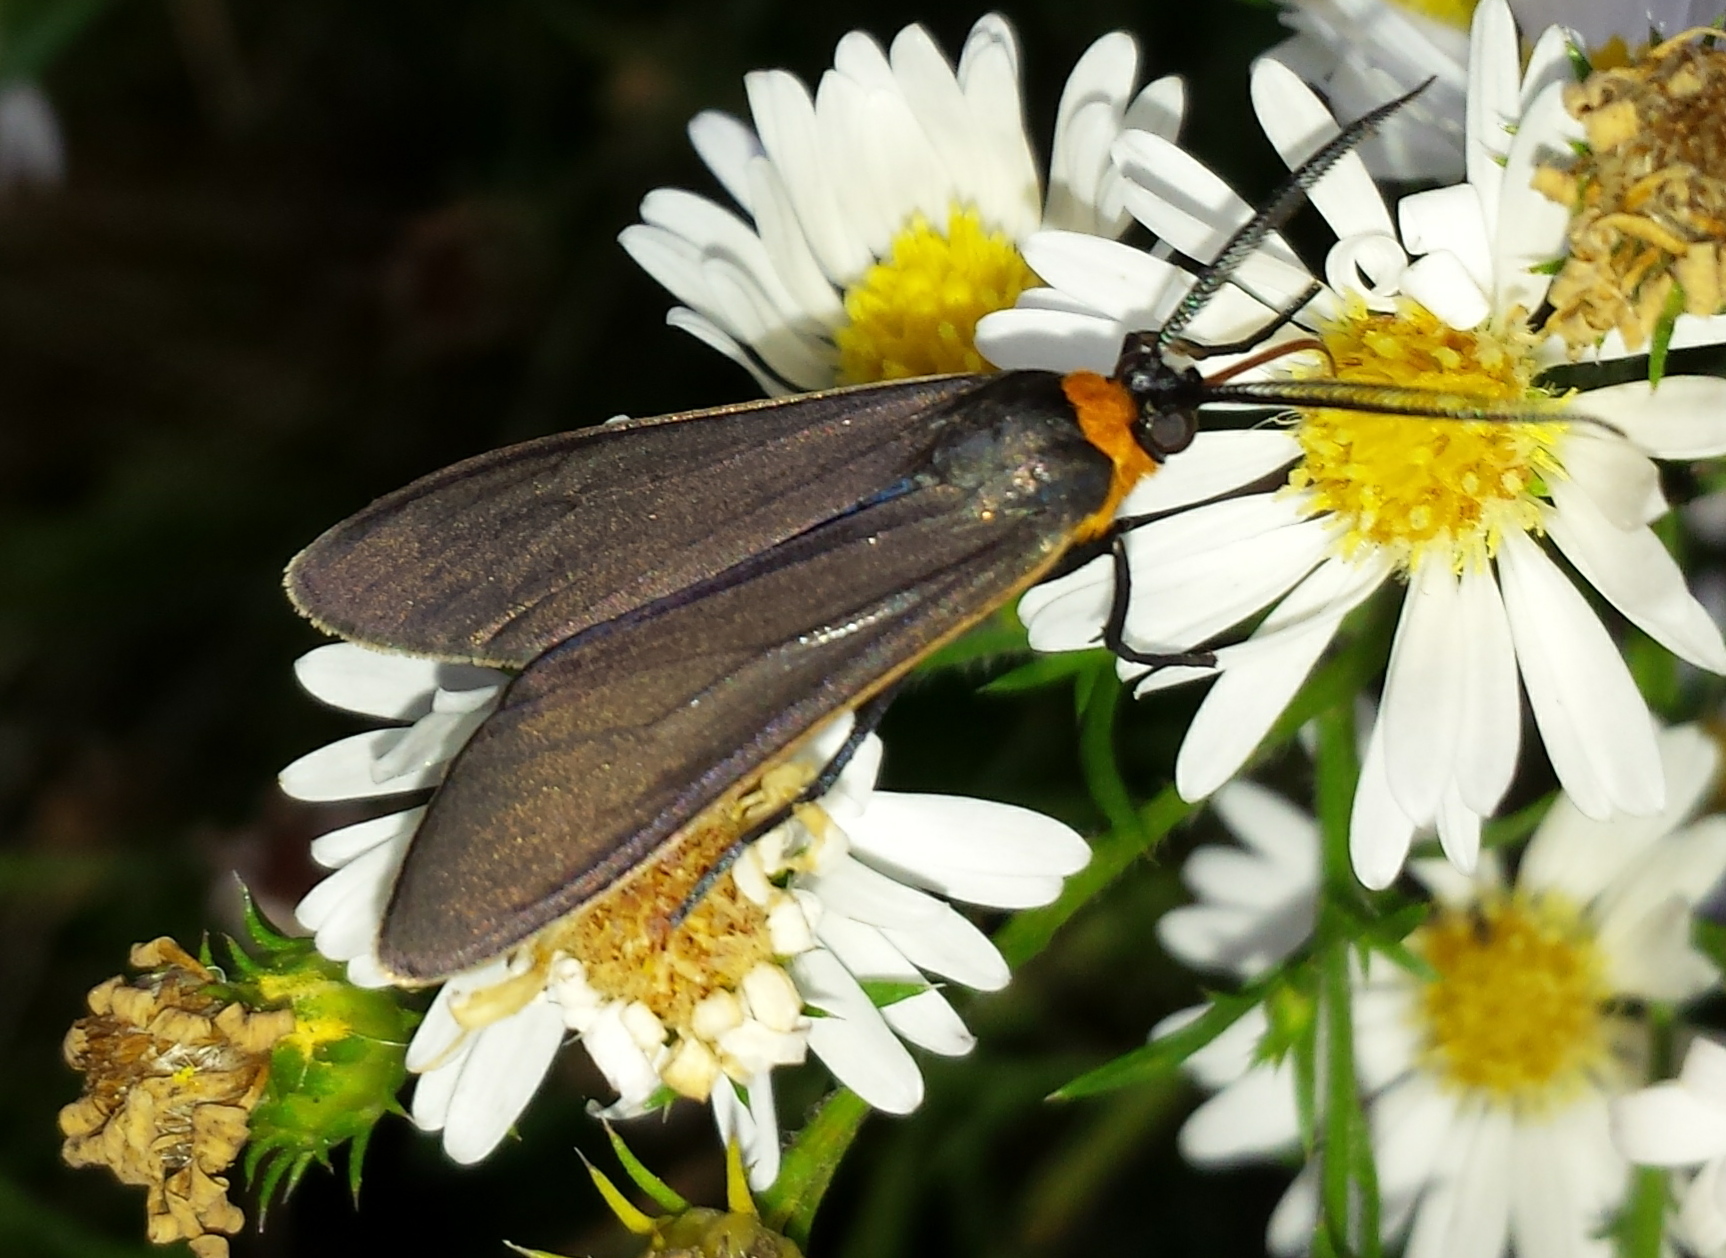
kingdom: Animalia
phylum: Arthropoda
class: Insecta
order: Lepidoptera
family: Erebidae
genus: Cisseps
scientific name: Cisseps fulvicollis
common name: Yellow-collared scape moth
